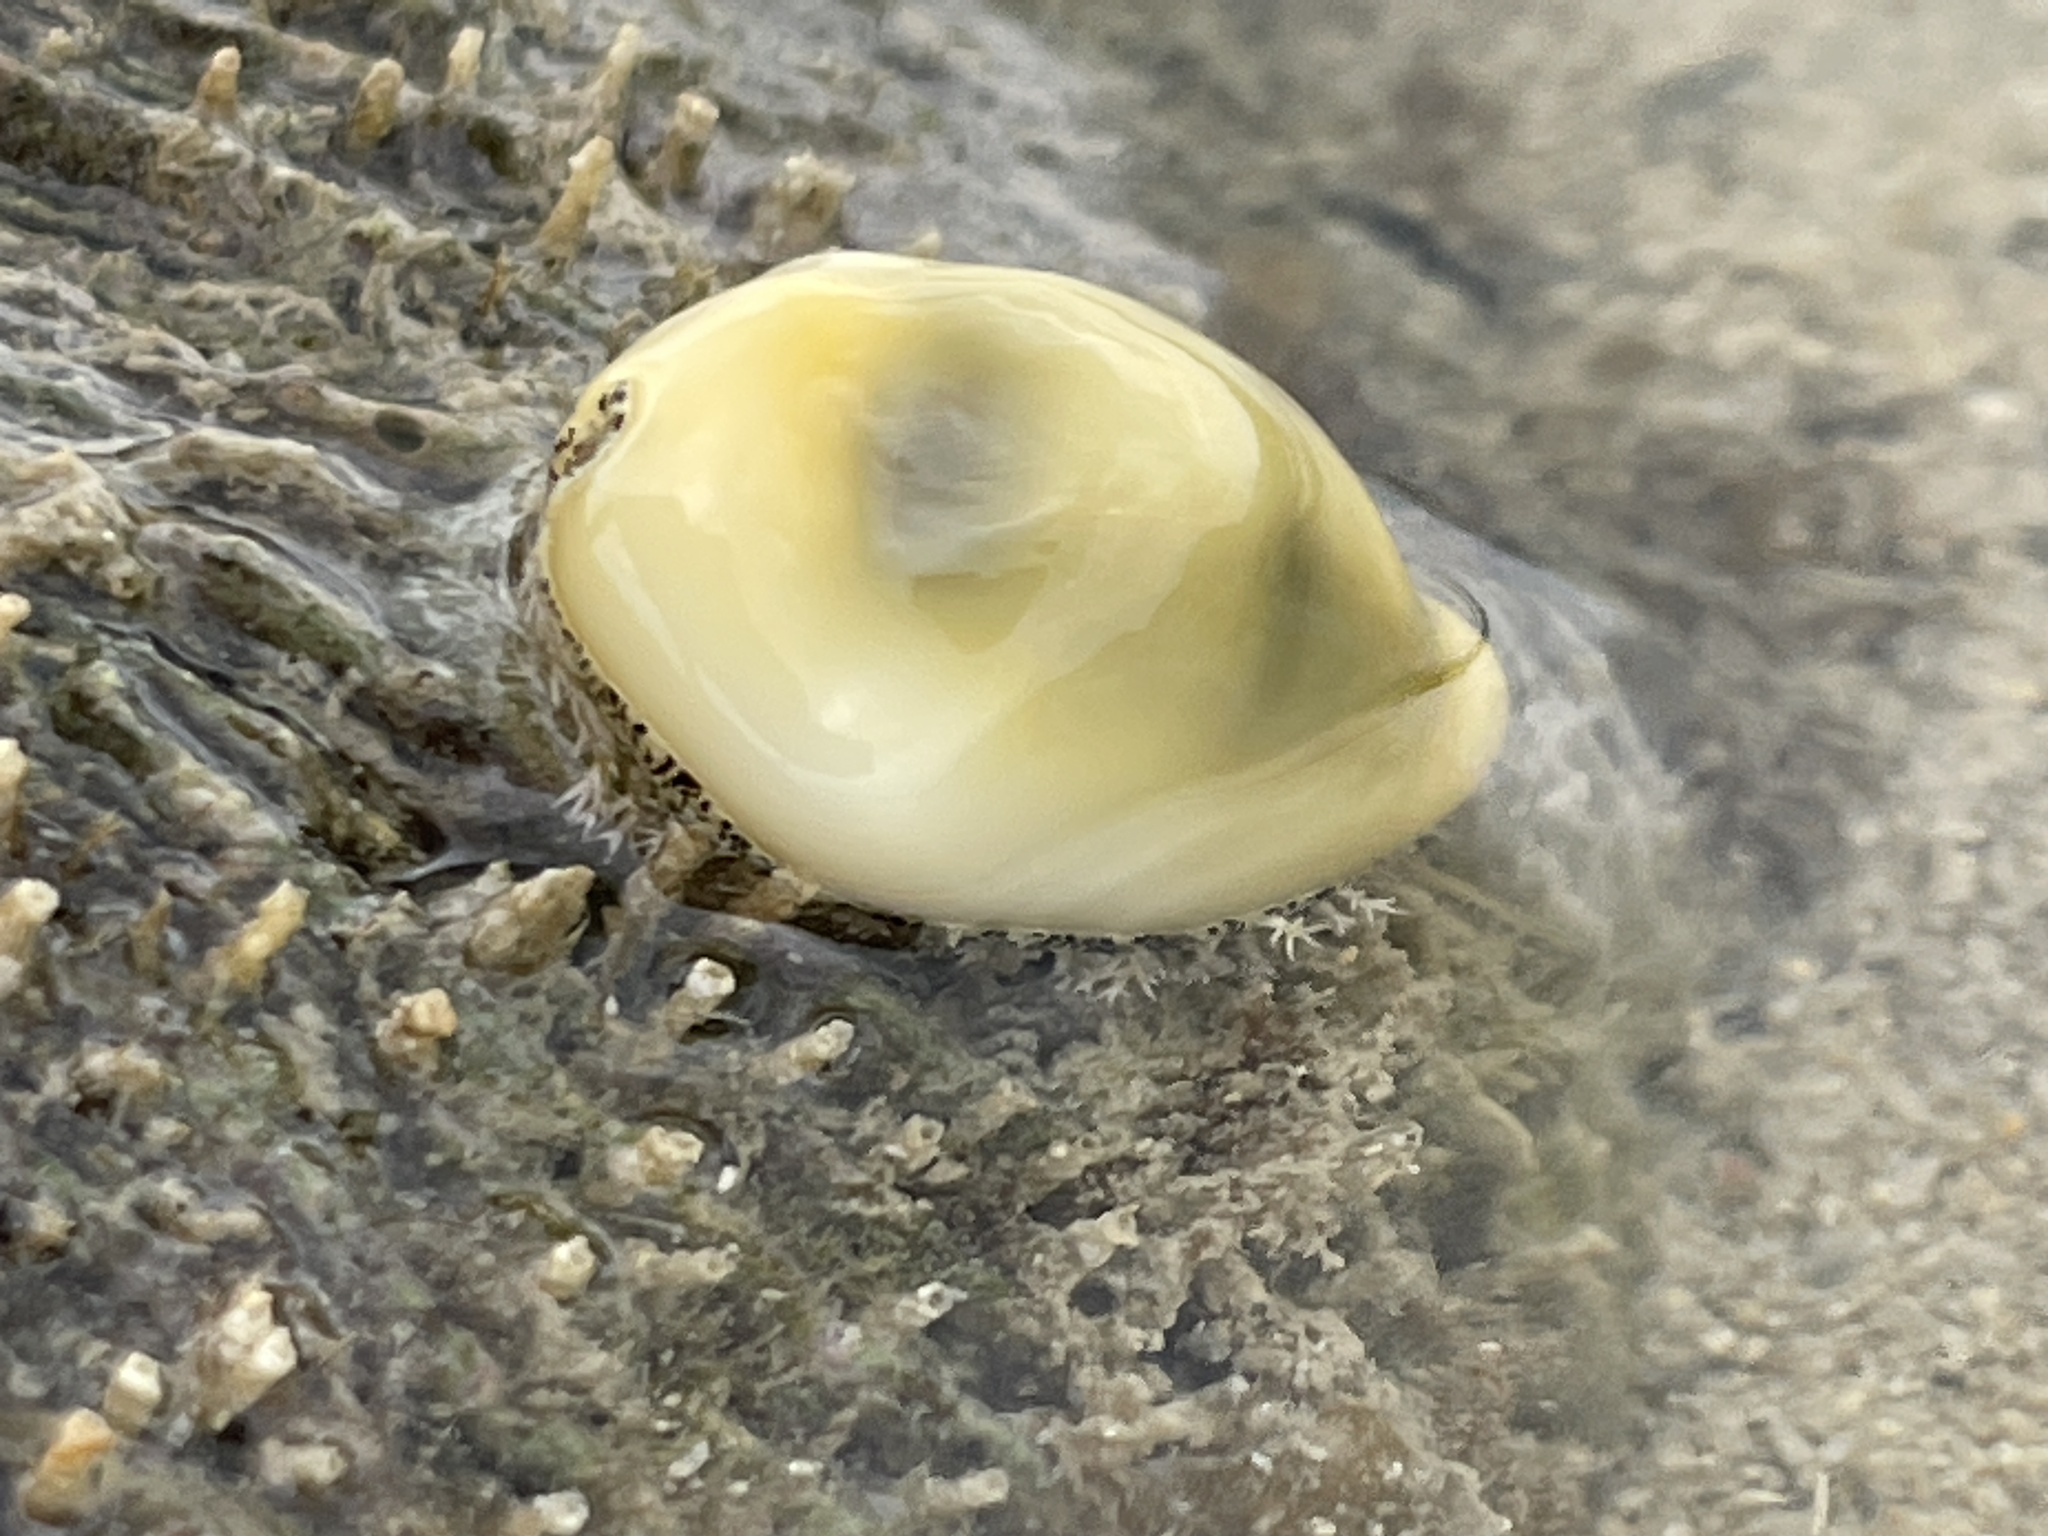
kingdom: Animalia
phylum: Mollusca
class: Gastropoda
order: Littorinimorpha
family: Cypraeidae
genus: Monetaria
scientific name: Monetaria moneta
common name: Money cowrie
